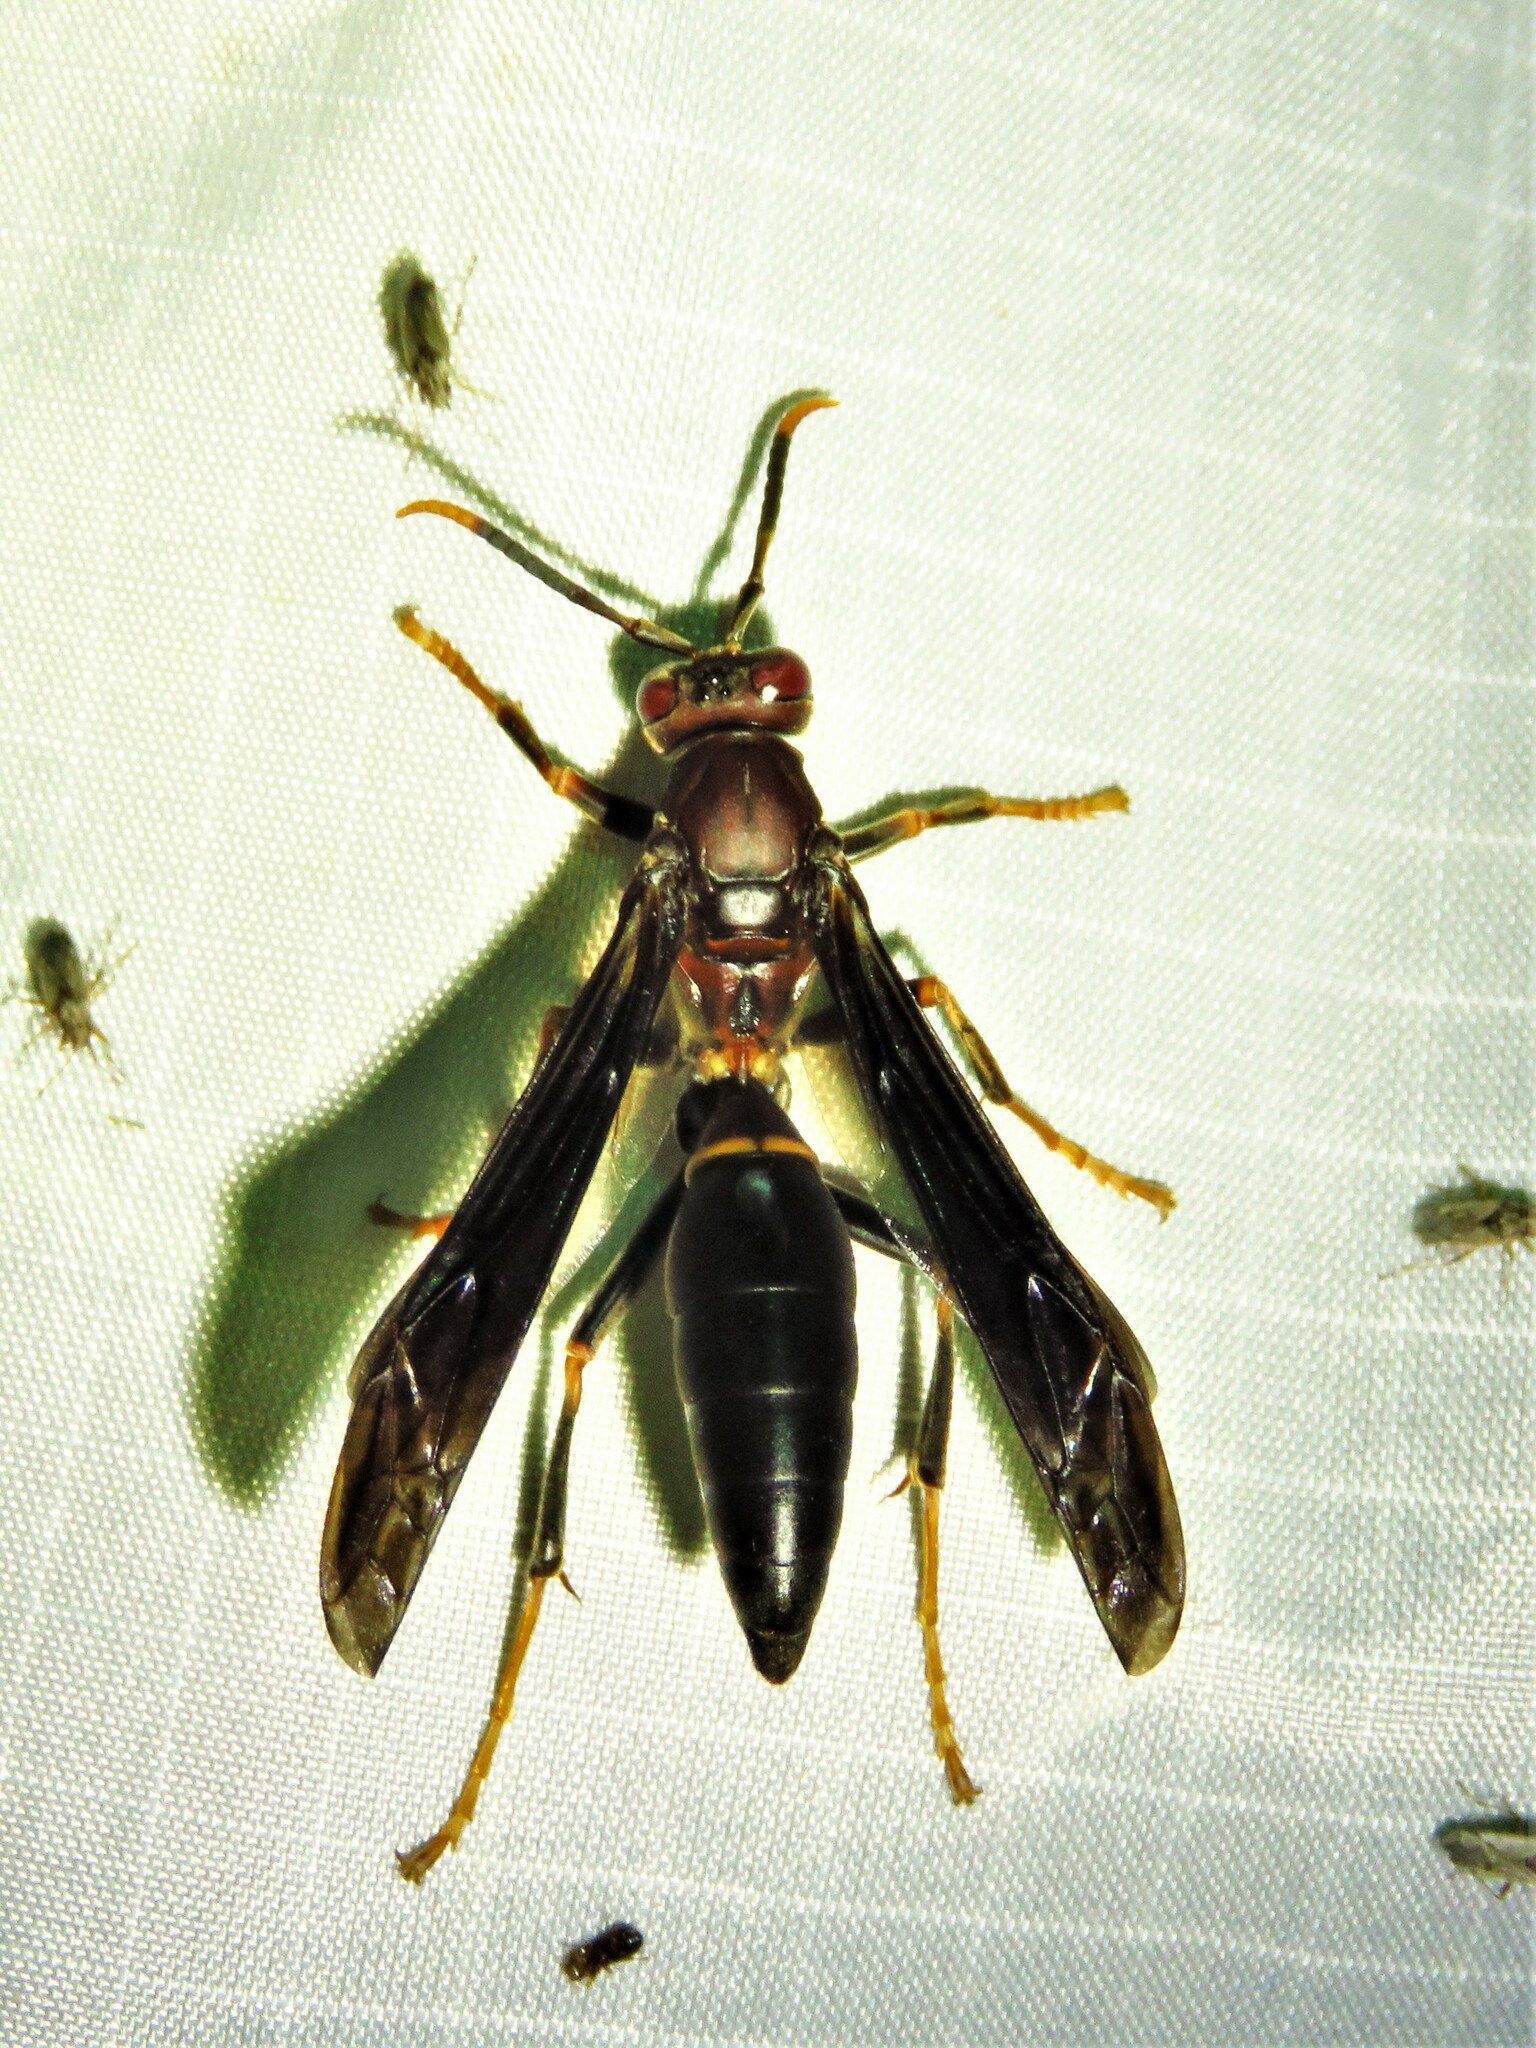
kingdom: Animalia
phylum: Arthropoda
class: Insecta
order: Hymenoptera
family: Eumenidae
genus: Polistes
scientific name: Polistes annularis
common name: Ringed paper wasp
